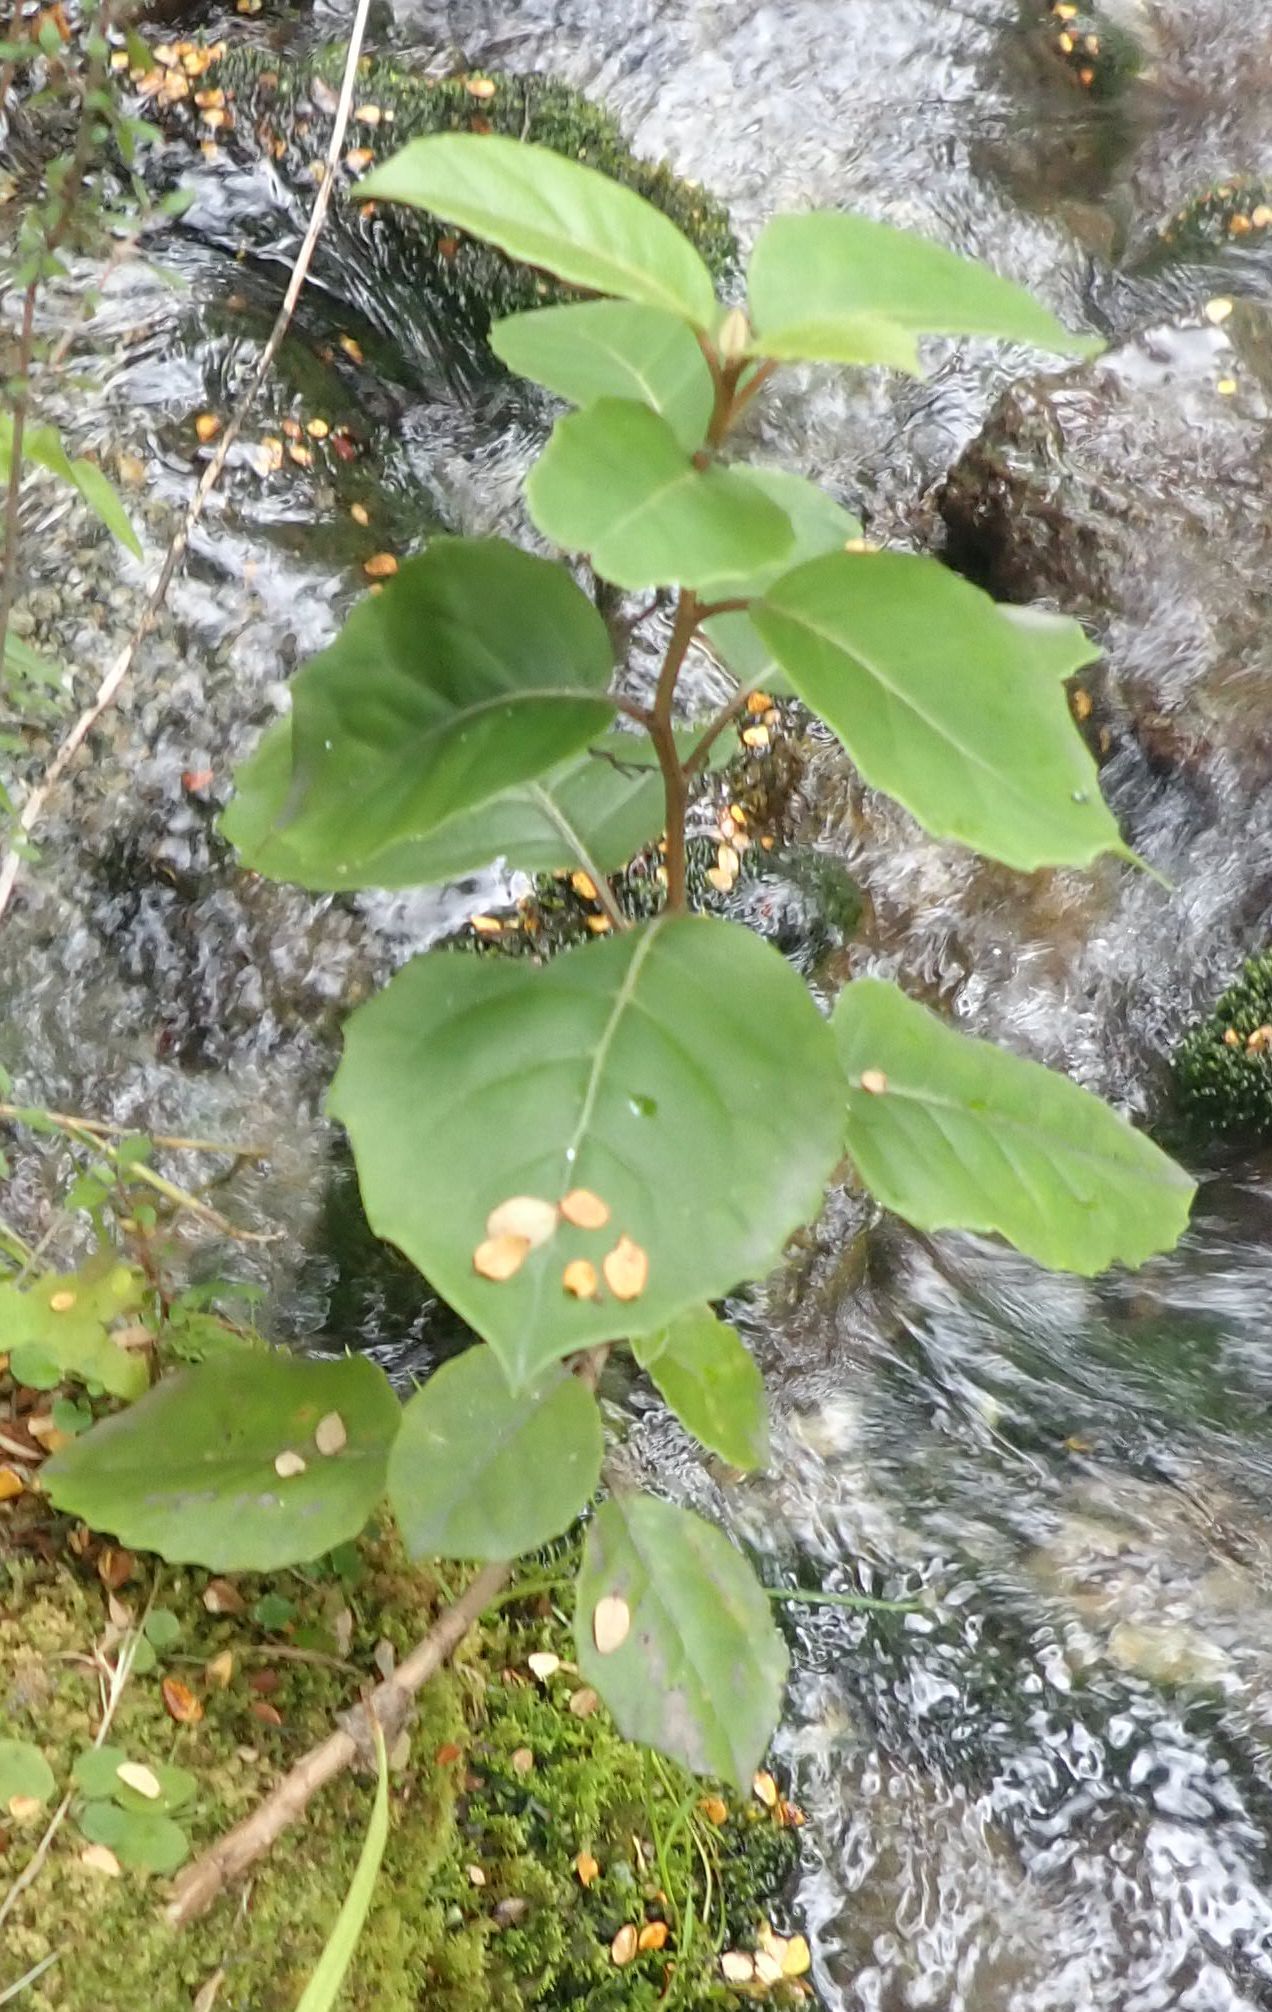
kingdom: Plantae
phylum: Tracheophyta
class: Magnoliopsida
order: Asterales
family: Asteraceae
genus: Olearia
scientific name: Olearia arborescens
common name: Glossy tree daisy
